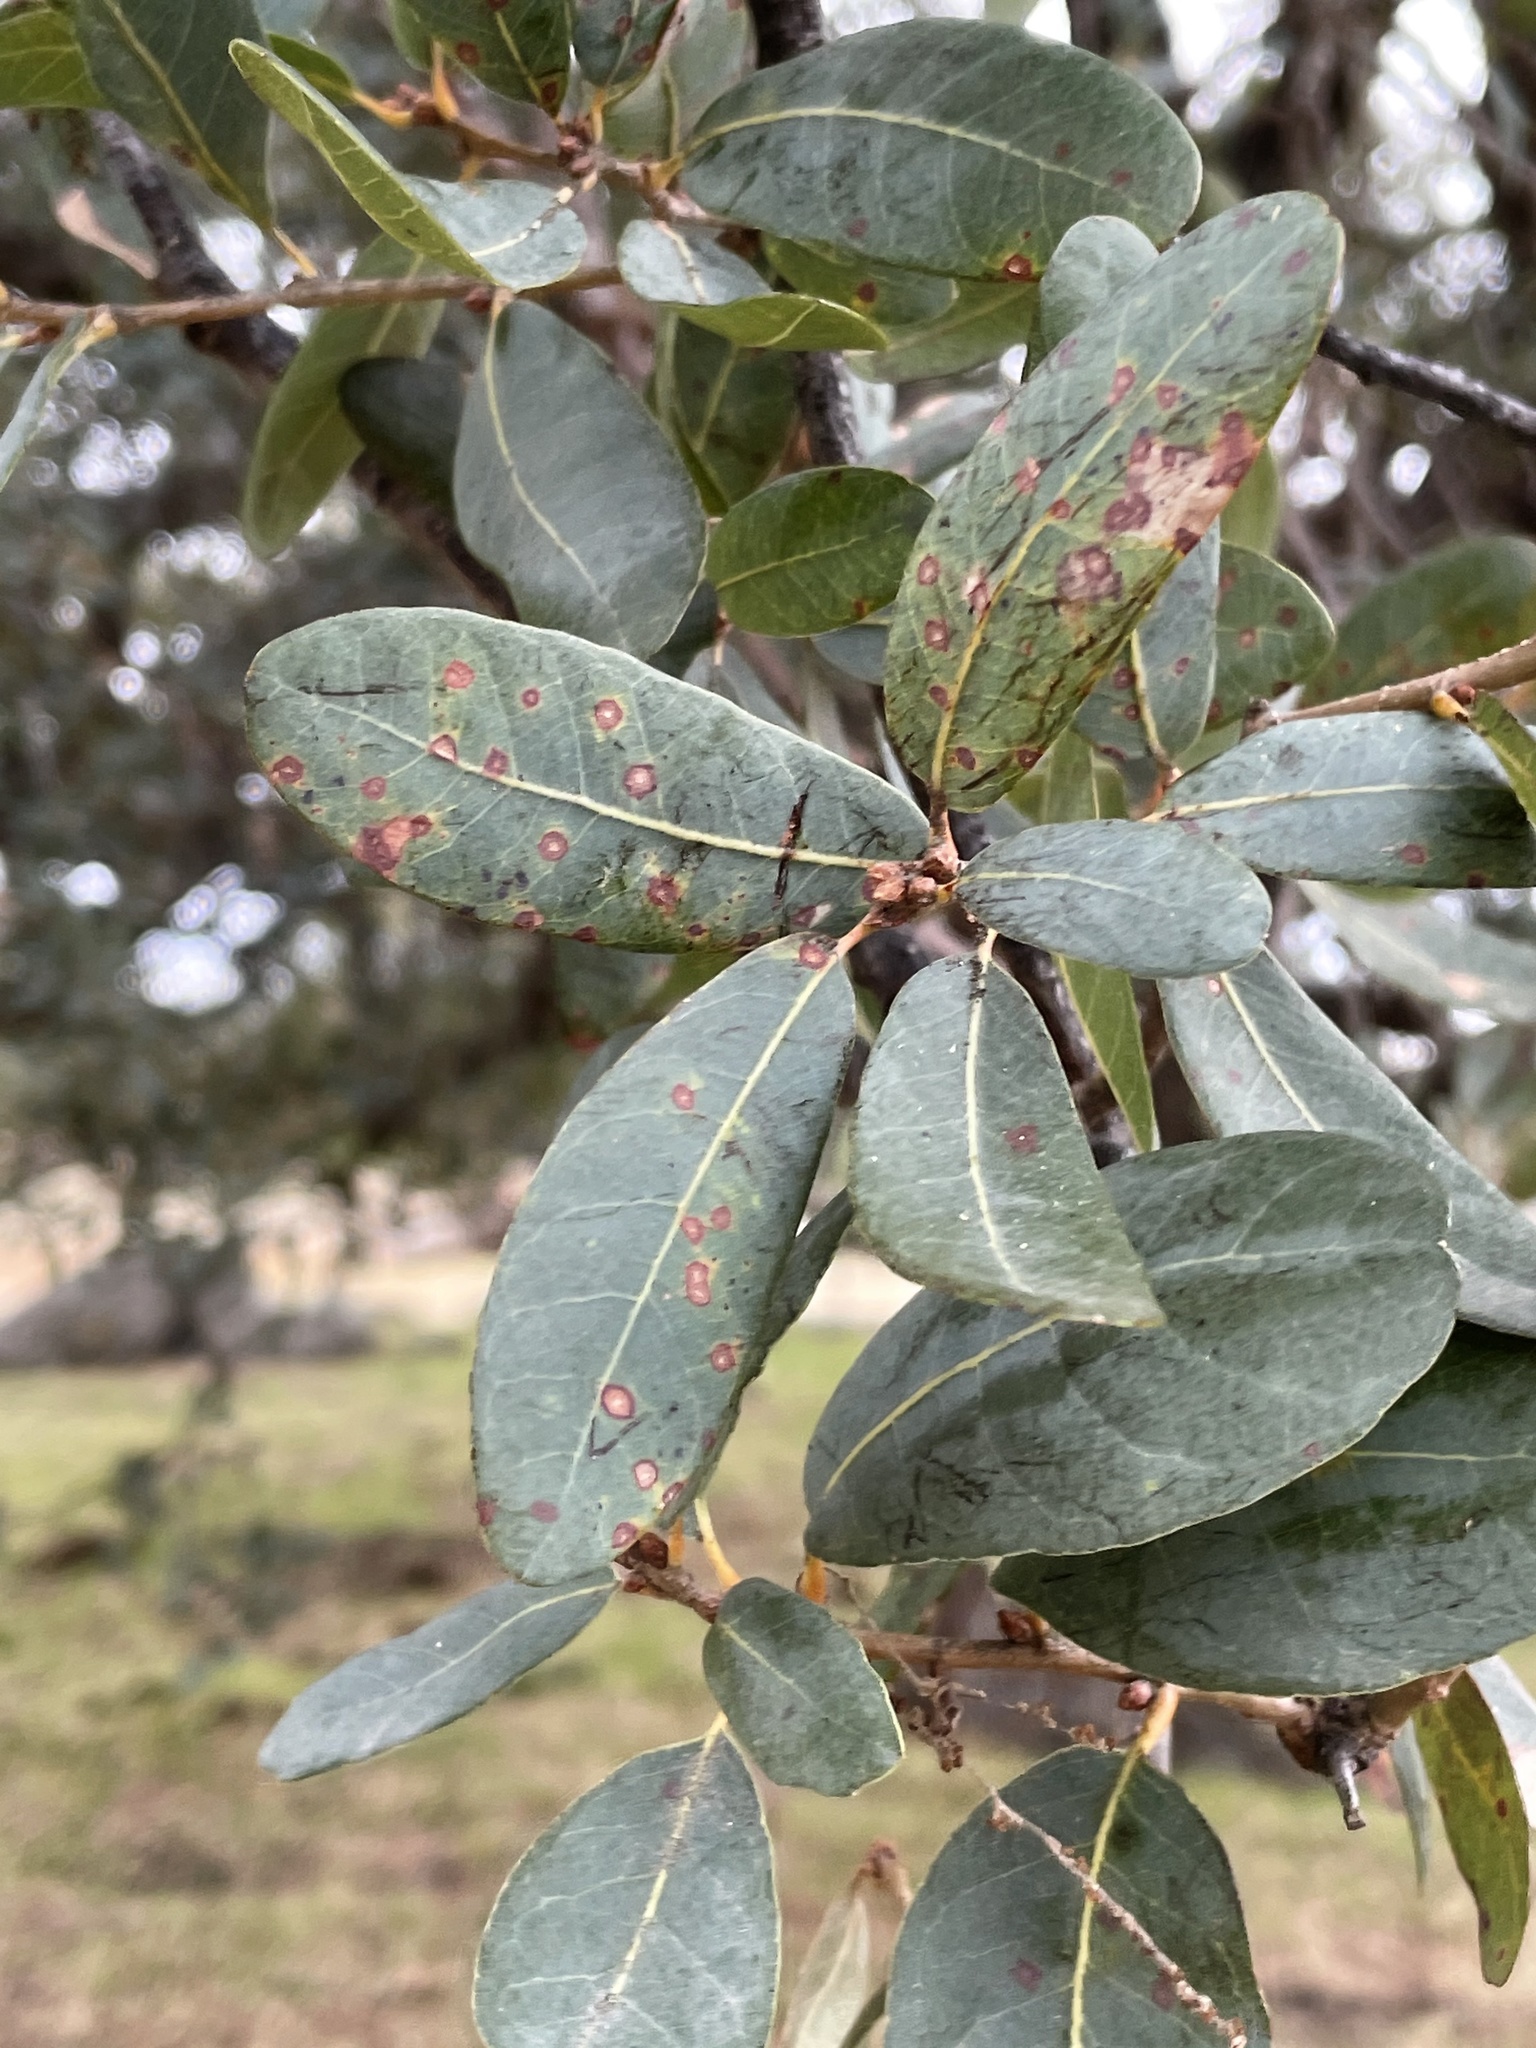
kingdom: Plantae
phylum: Tracheophyta
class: Magnoliopsida
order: Fagales
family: Fagaceae
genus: Quercus
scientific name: Quercus engelmannii
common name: Engelmann oak
